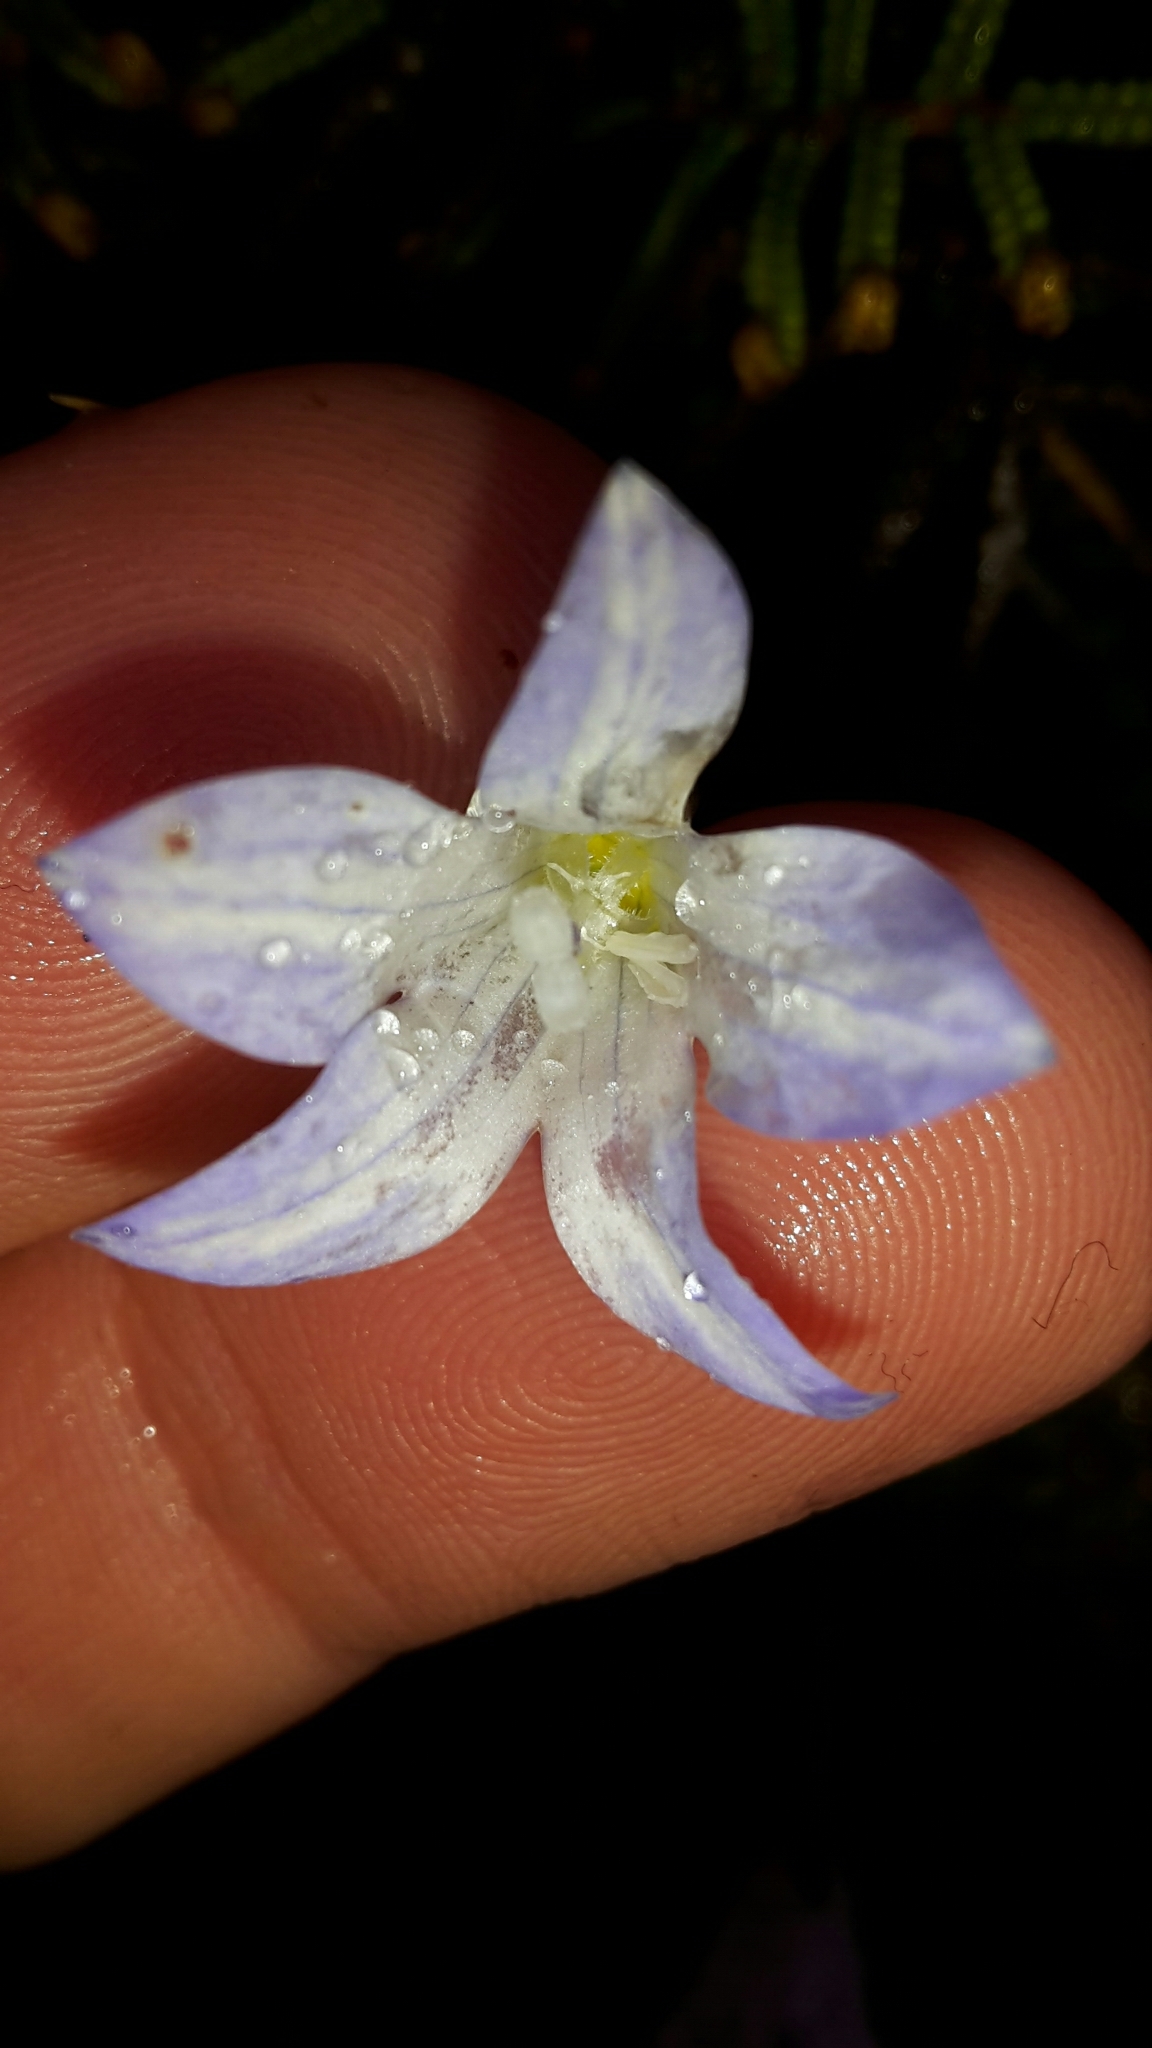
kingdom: Plantae
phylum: Tracheophyta
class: Magnoliopsida
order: Asterales
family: Campanulaceae
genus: Wahlenbergia
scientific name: Wahlenbergia pygmaea
